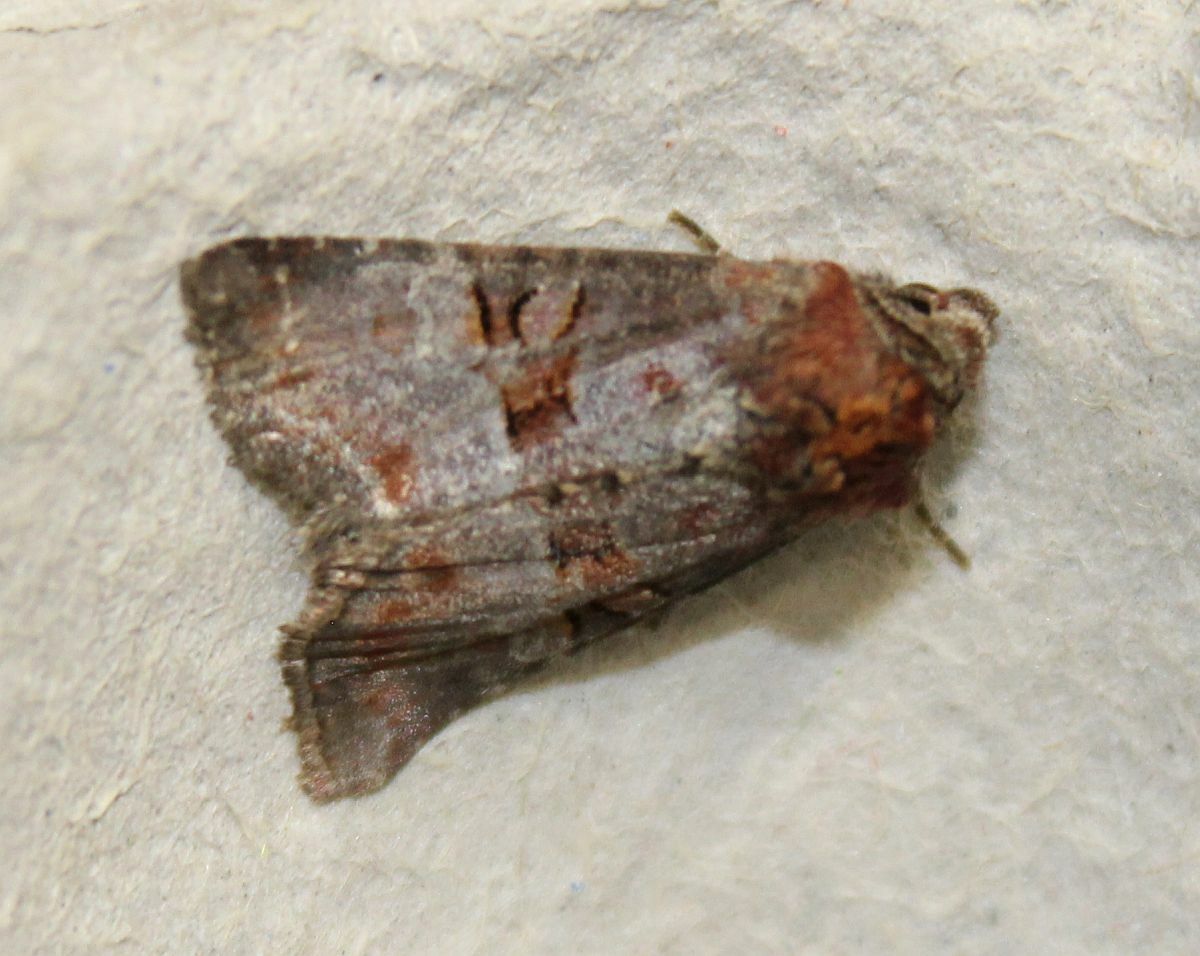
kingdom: Animalia
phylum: Arthropoda
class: Insecta
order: Lepidoptera
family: Noctuidae
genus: Litoligia
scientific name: Litoligia literosa
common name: Rosy minor
